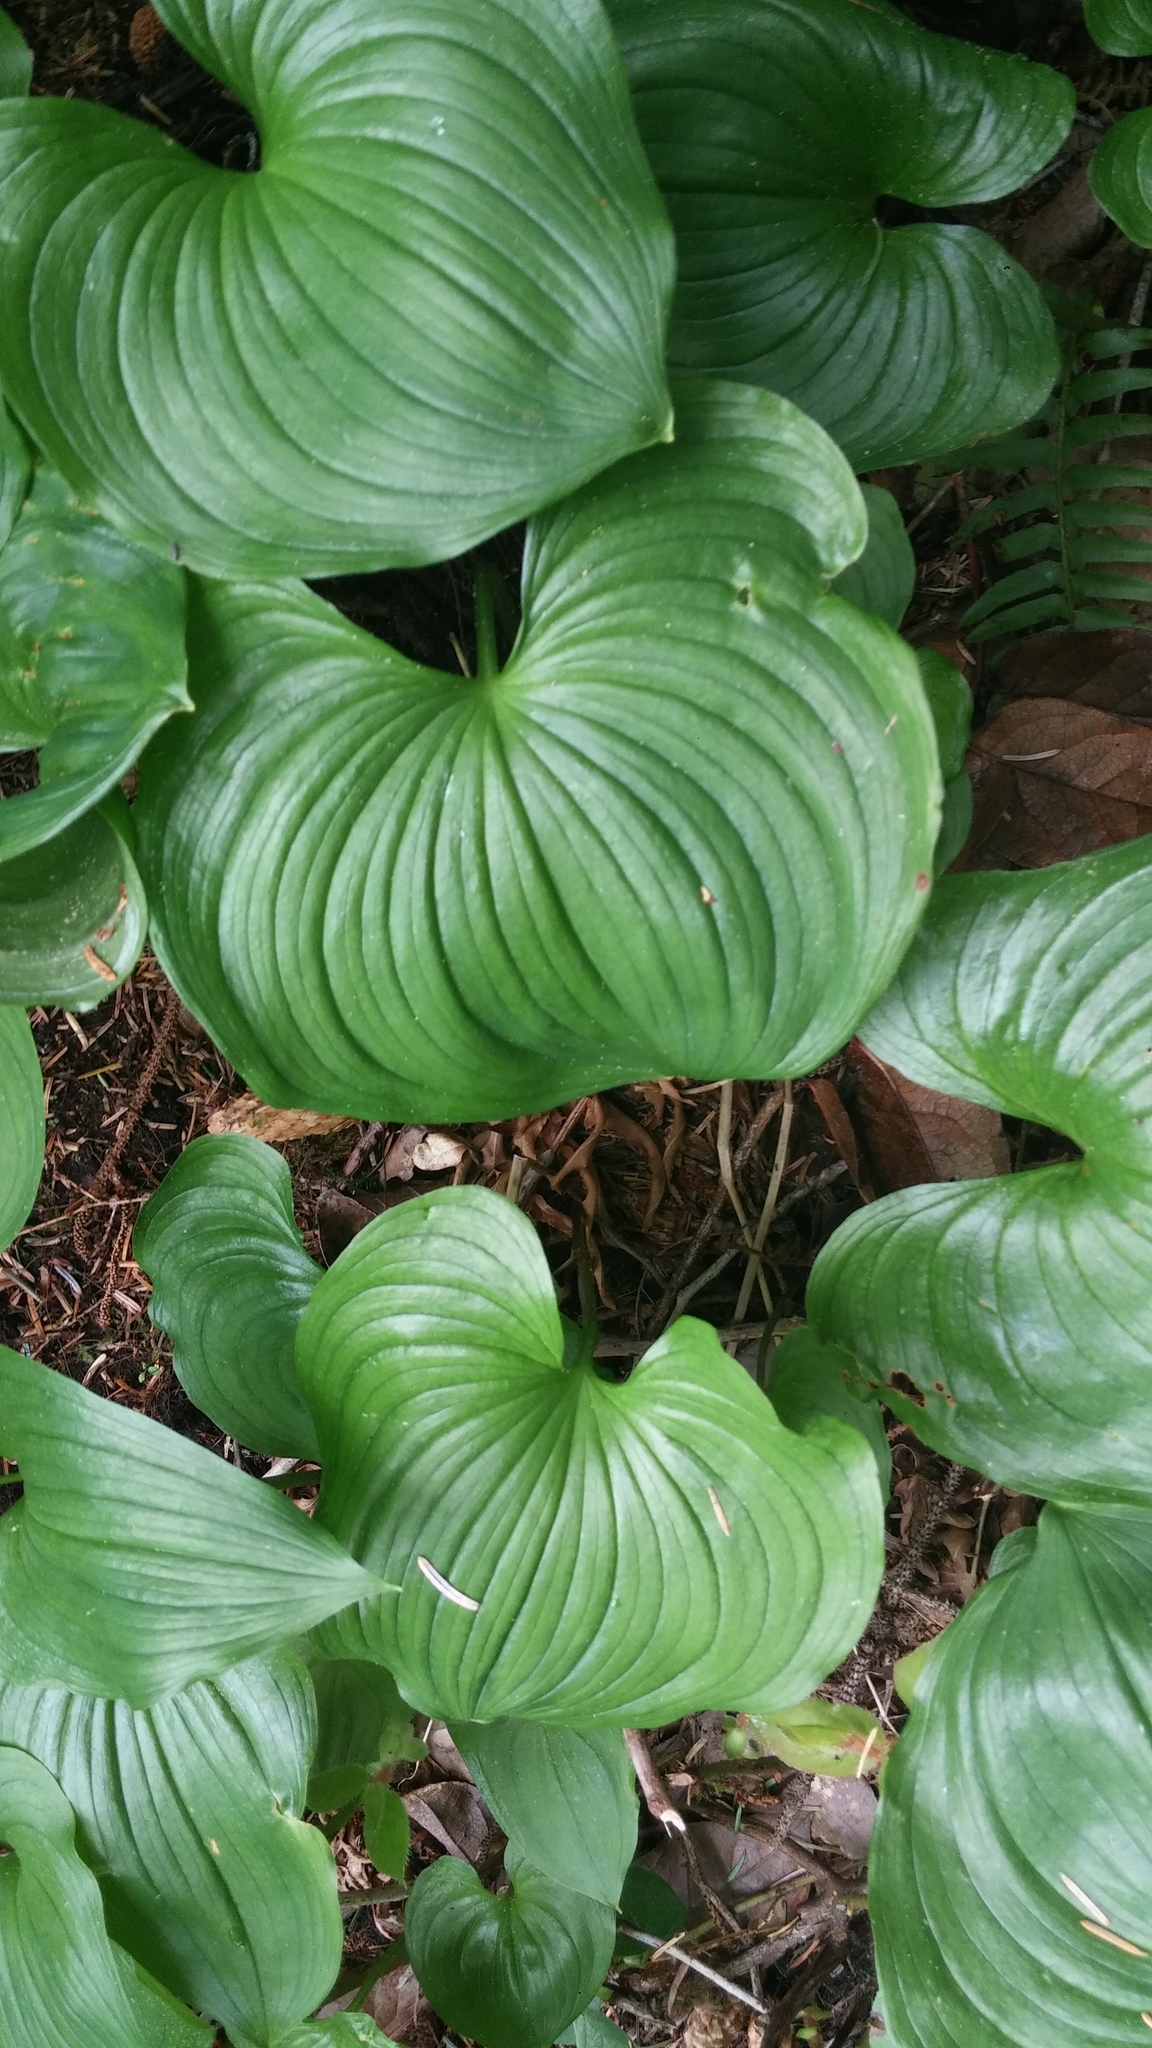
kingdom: Plantae
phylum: Tracheophyta
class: Liliopsida
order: Asparagales
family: Asparagaceae
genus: Maianthemum
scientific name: Maianthemum dilatatum
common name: False lily-of-the-valley
